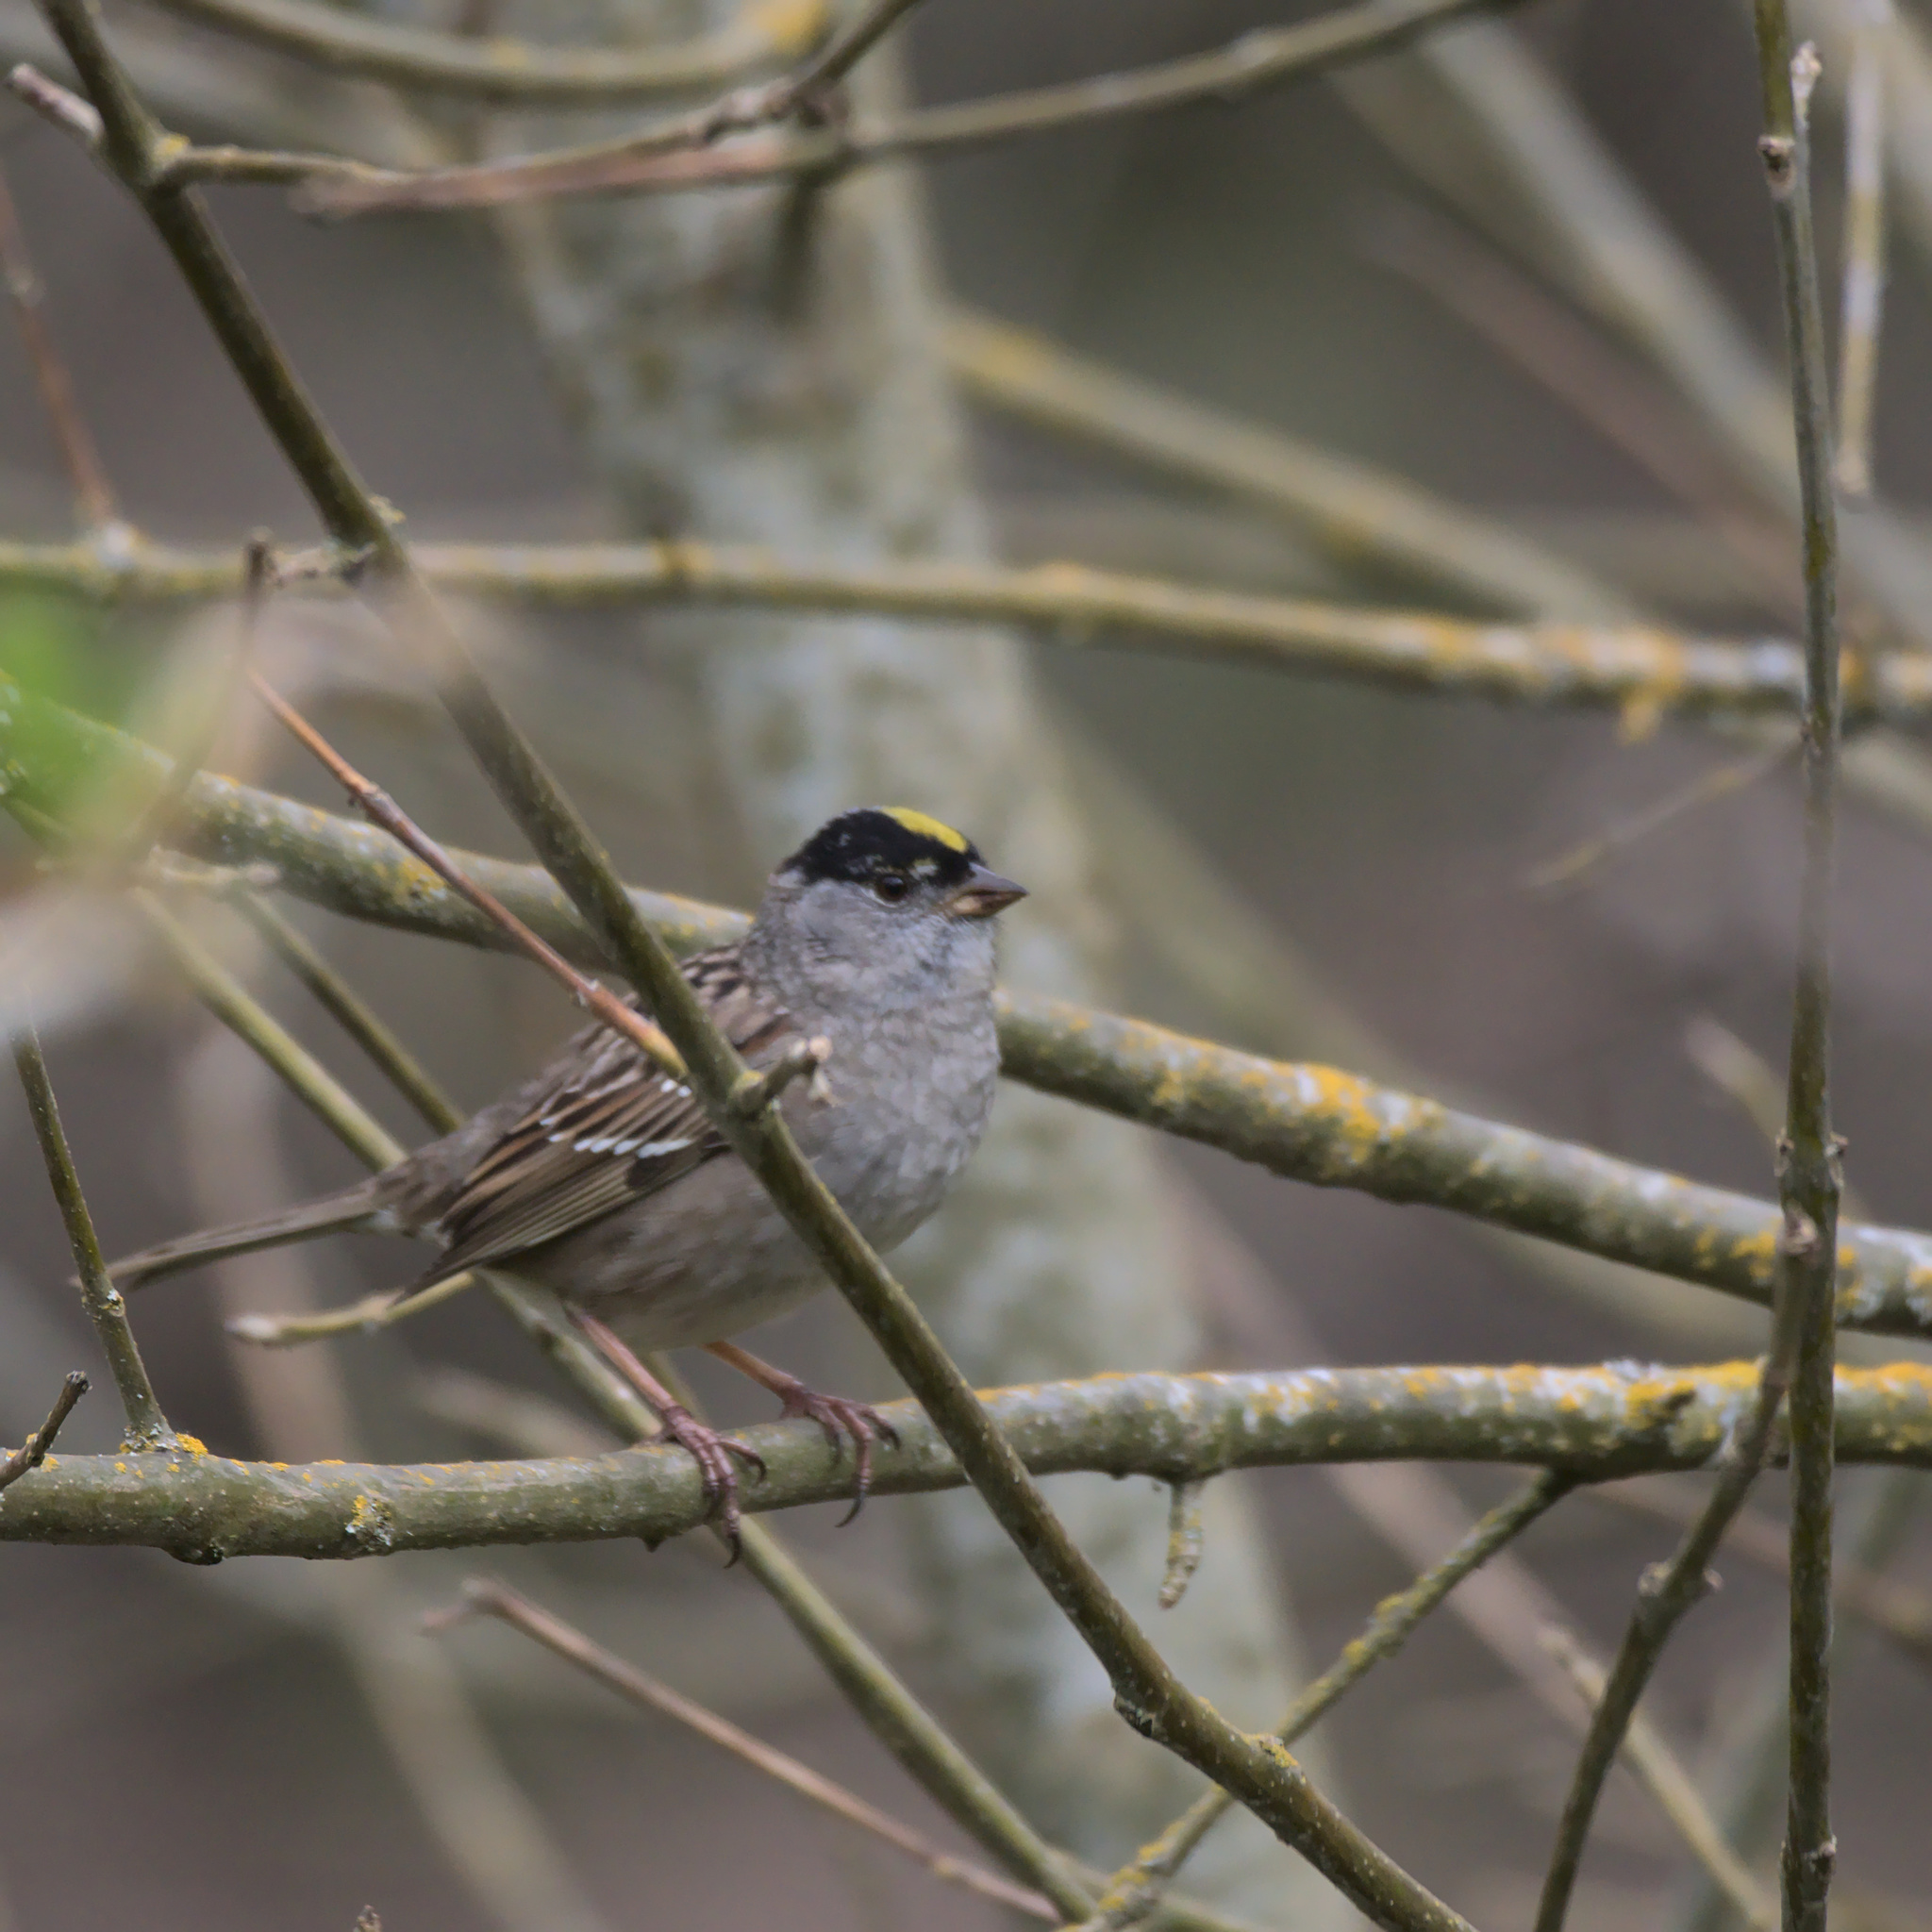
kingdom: Animalia
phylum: Chordata
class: Aves
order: Passeriformes
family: Passerellidae
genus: Zonotrichia
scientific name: Zonotrichia atricapilla
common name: Golden-crowned sparrow
